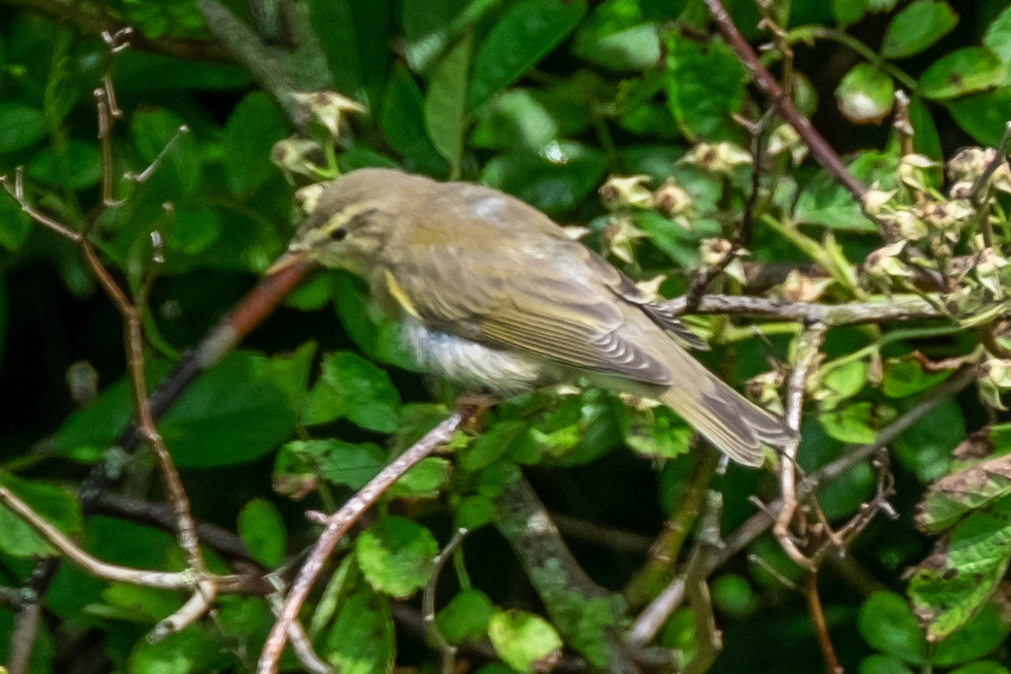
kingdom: Animalia
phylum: Chordata
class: Aves
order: Passeriformes
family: Phylloscopidae
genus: Phylloscopus
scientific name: Phylloscopus trochilus
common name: Willow warbler
